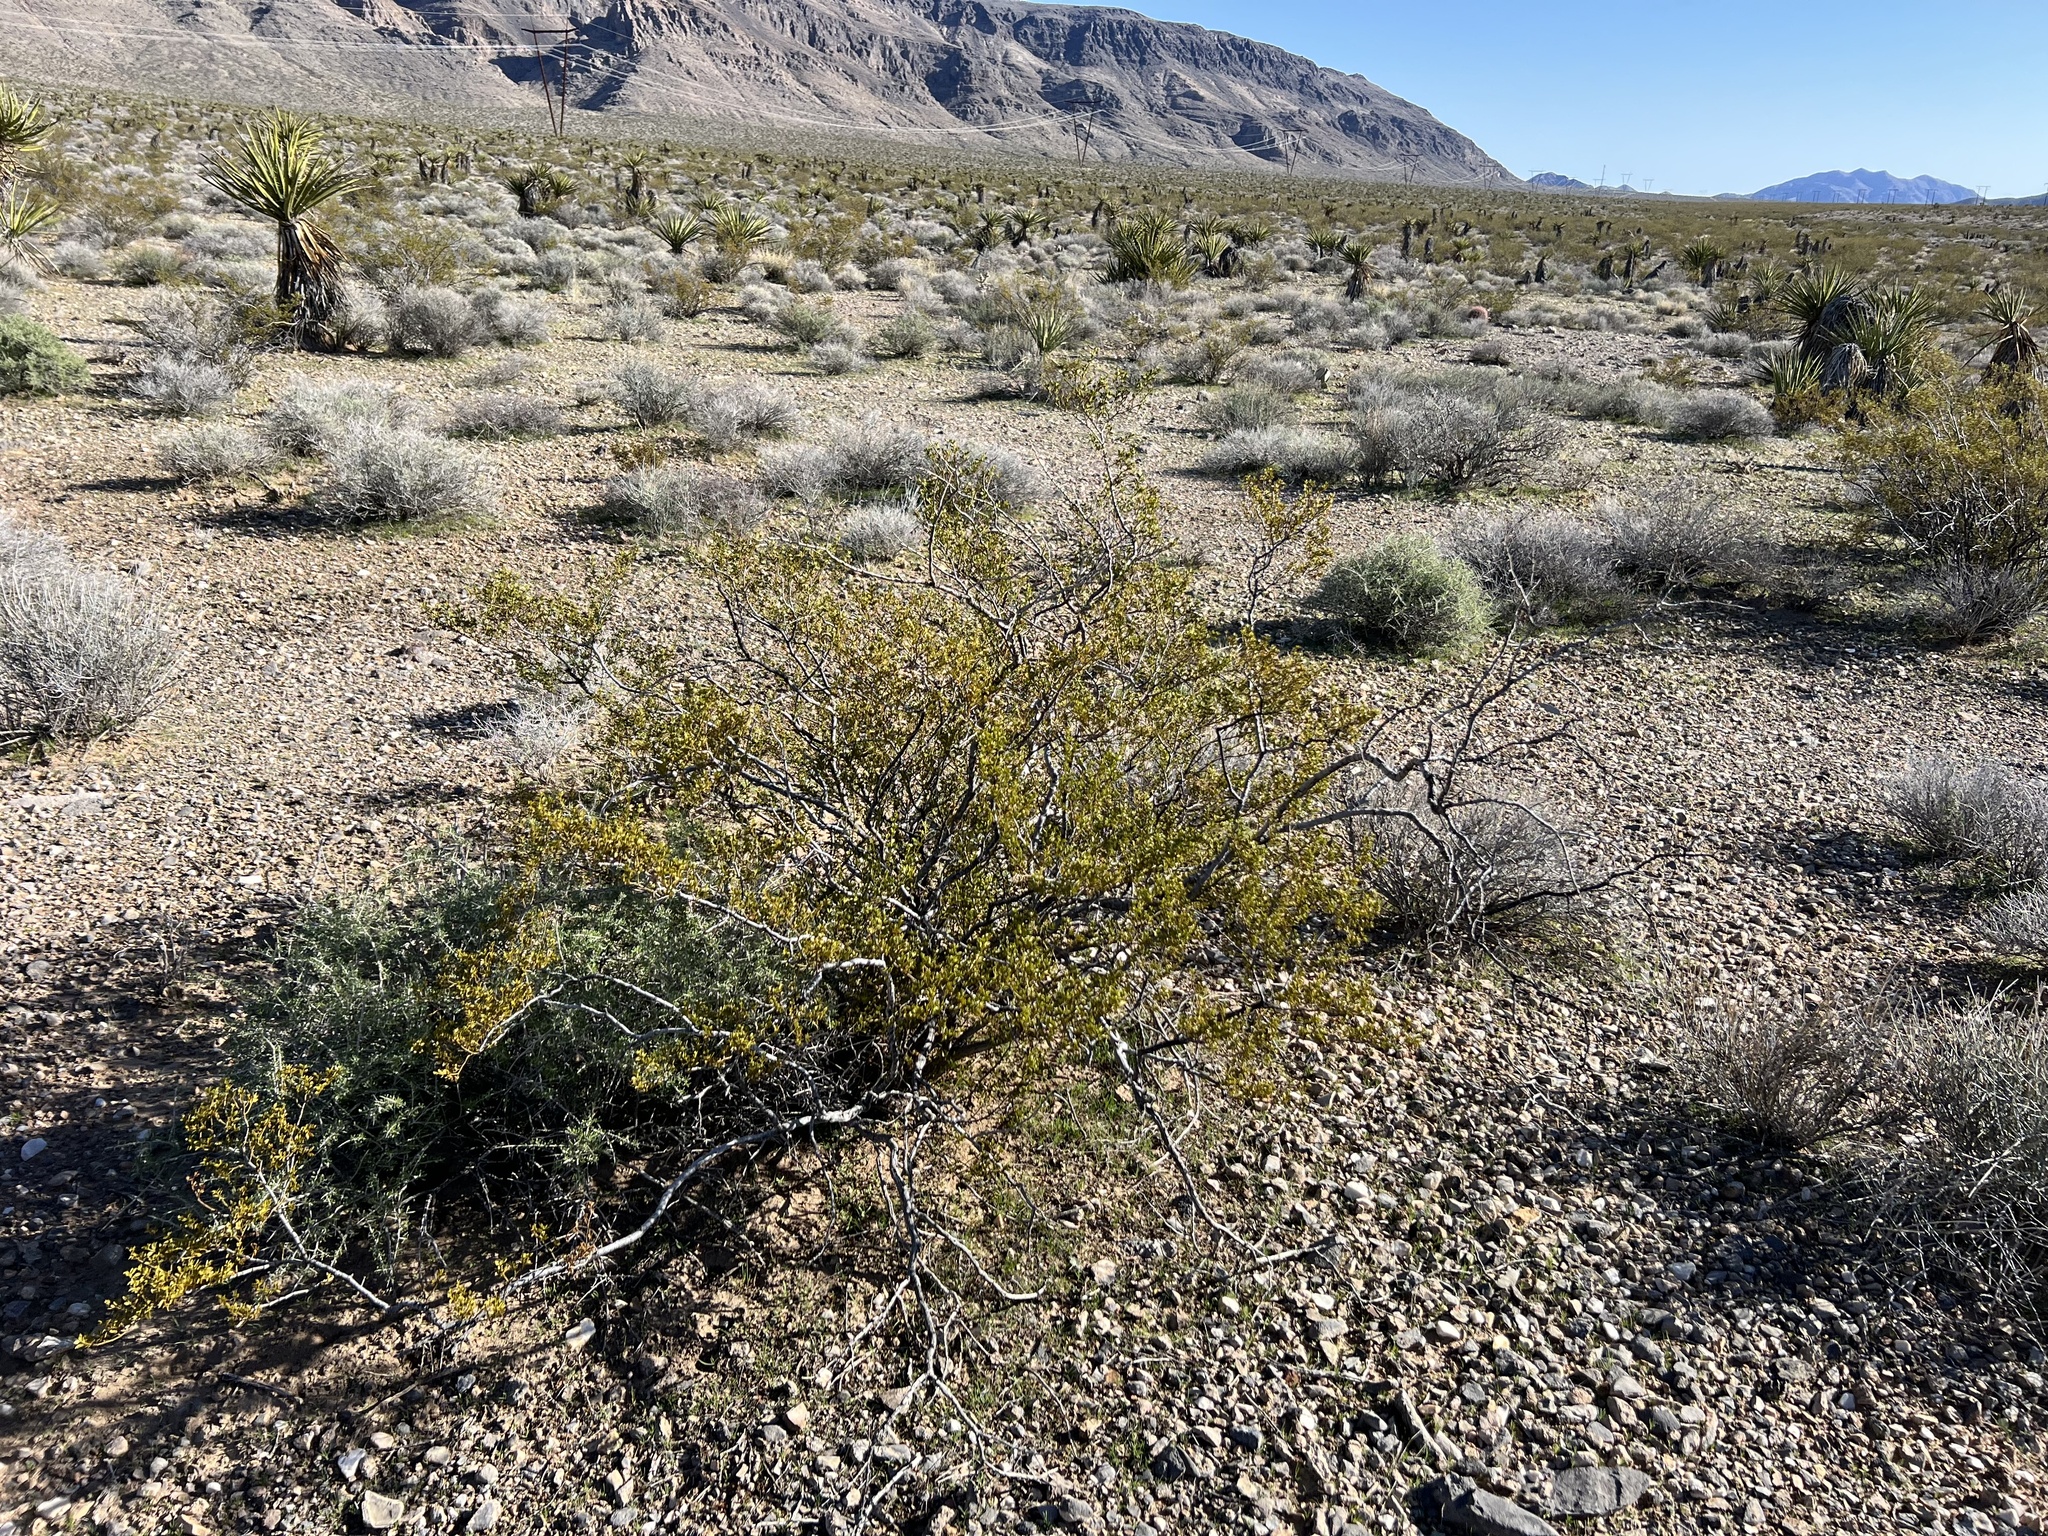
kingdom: Plantae
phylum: Tracheophyta
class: Magnoliopsida
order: Zygophyllales
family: Zygophyllaceae
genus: Larrea
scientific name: Larrea tridentata
